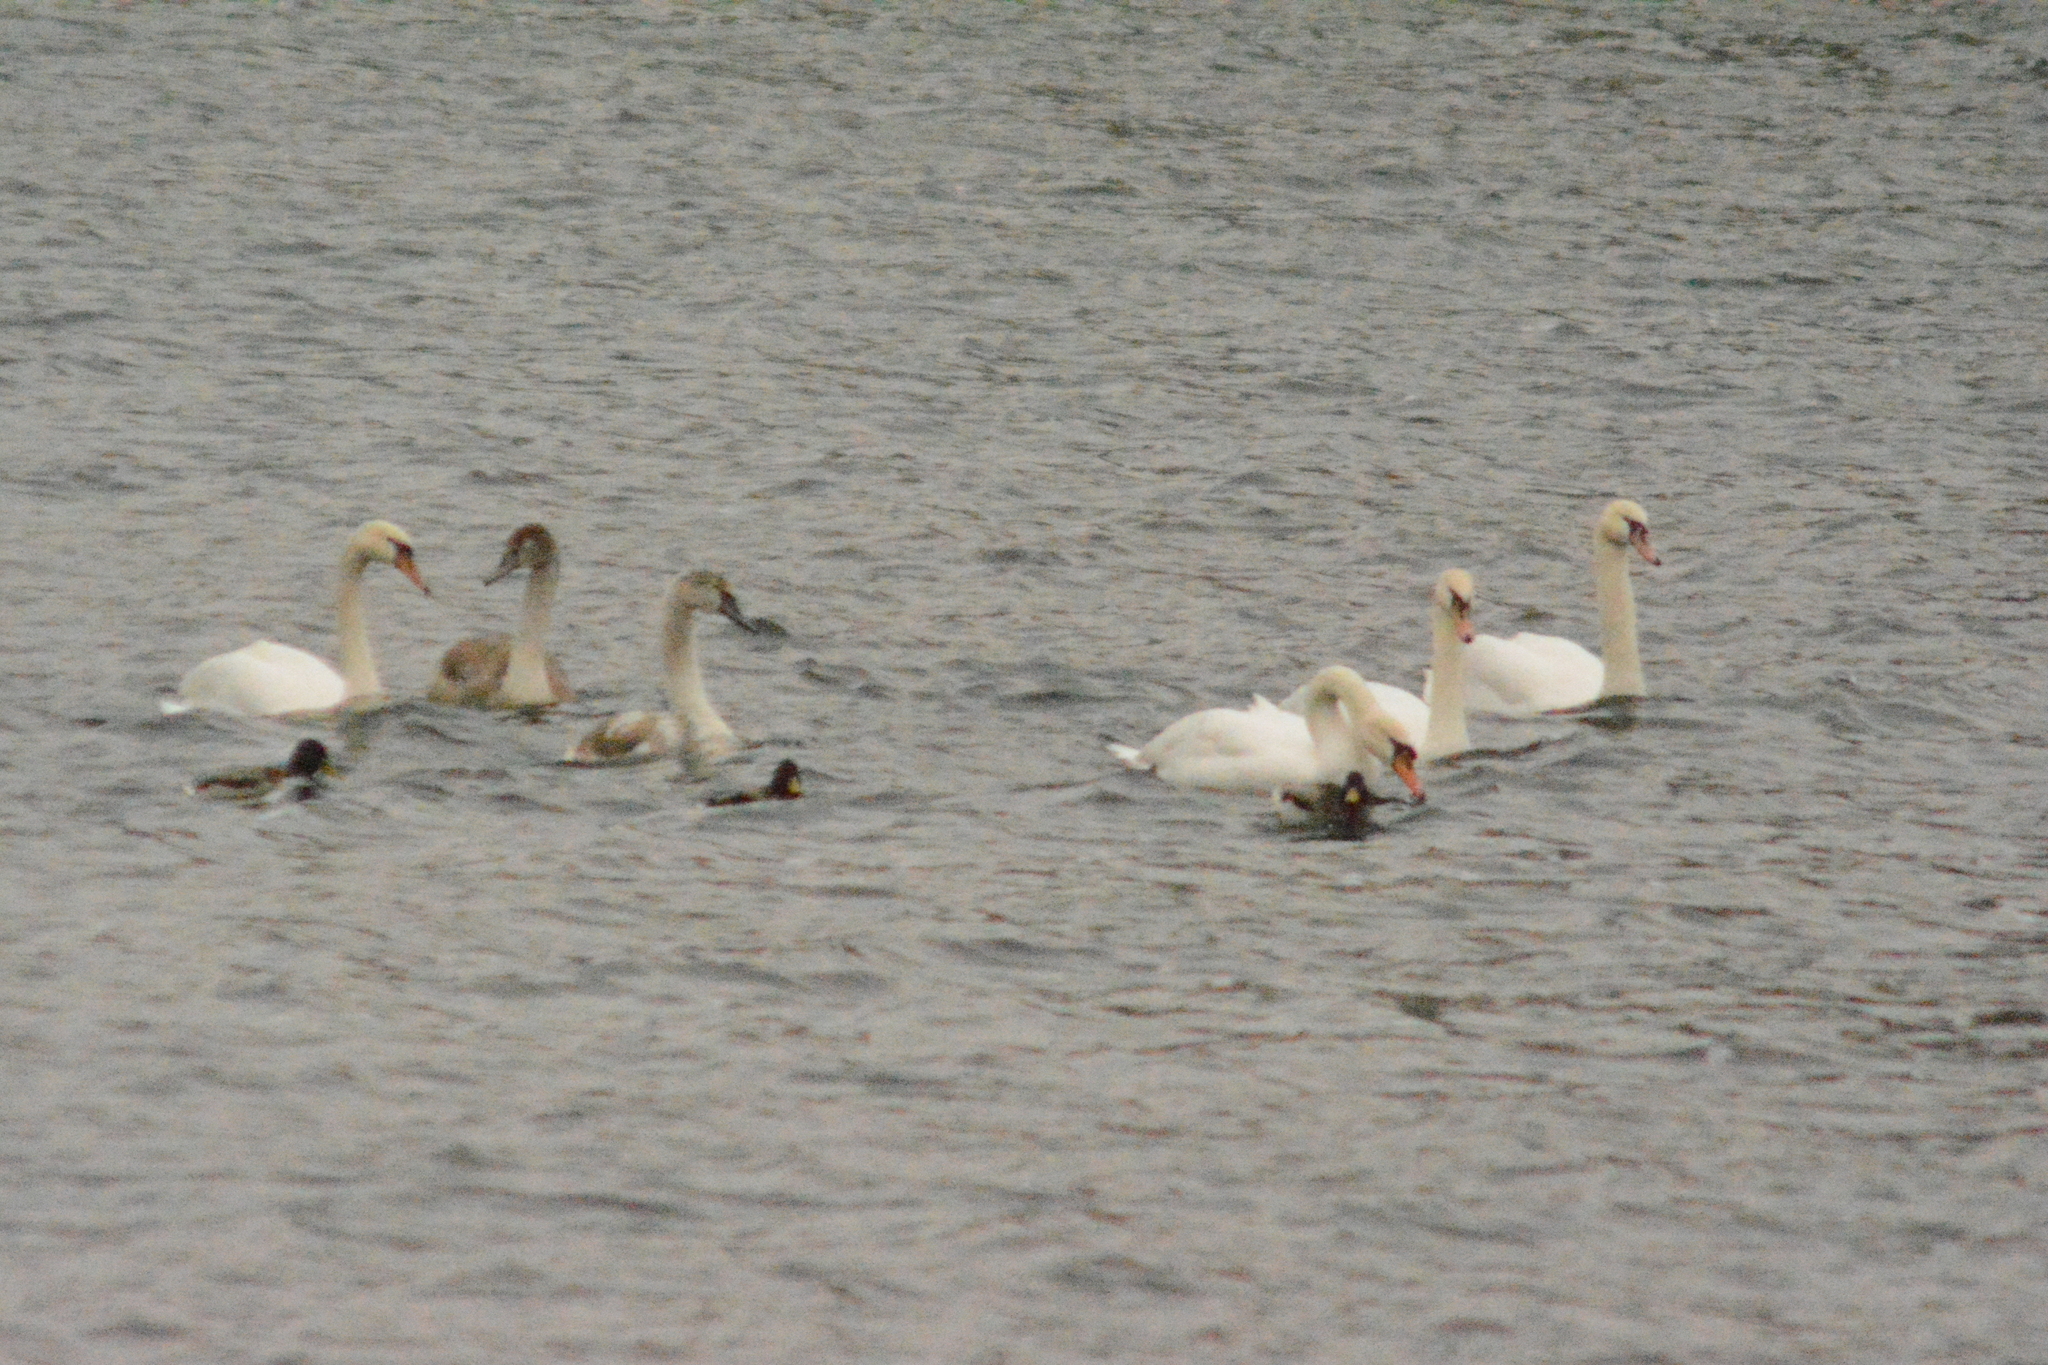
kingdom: Animalia
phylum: Chordata
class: Aves
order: Anseriformes
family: Anatidae
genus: Cygnus
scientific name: Cygnus olor
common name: Mute swan
